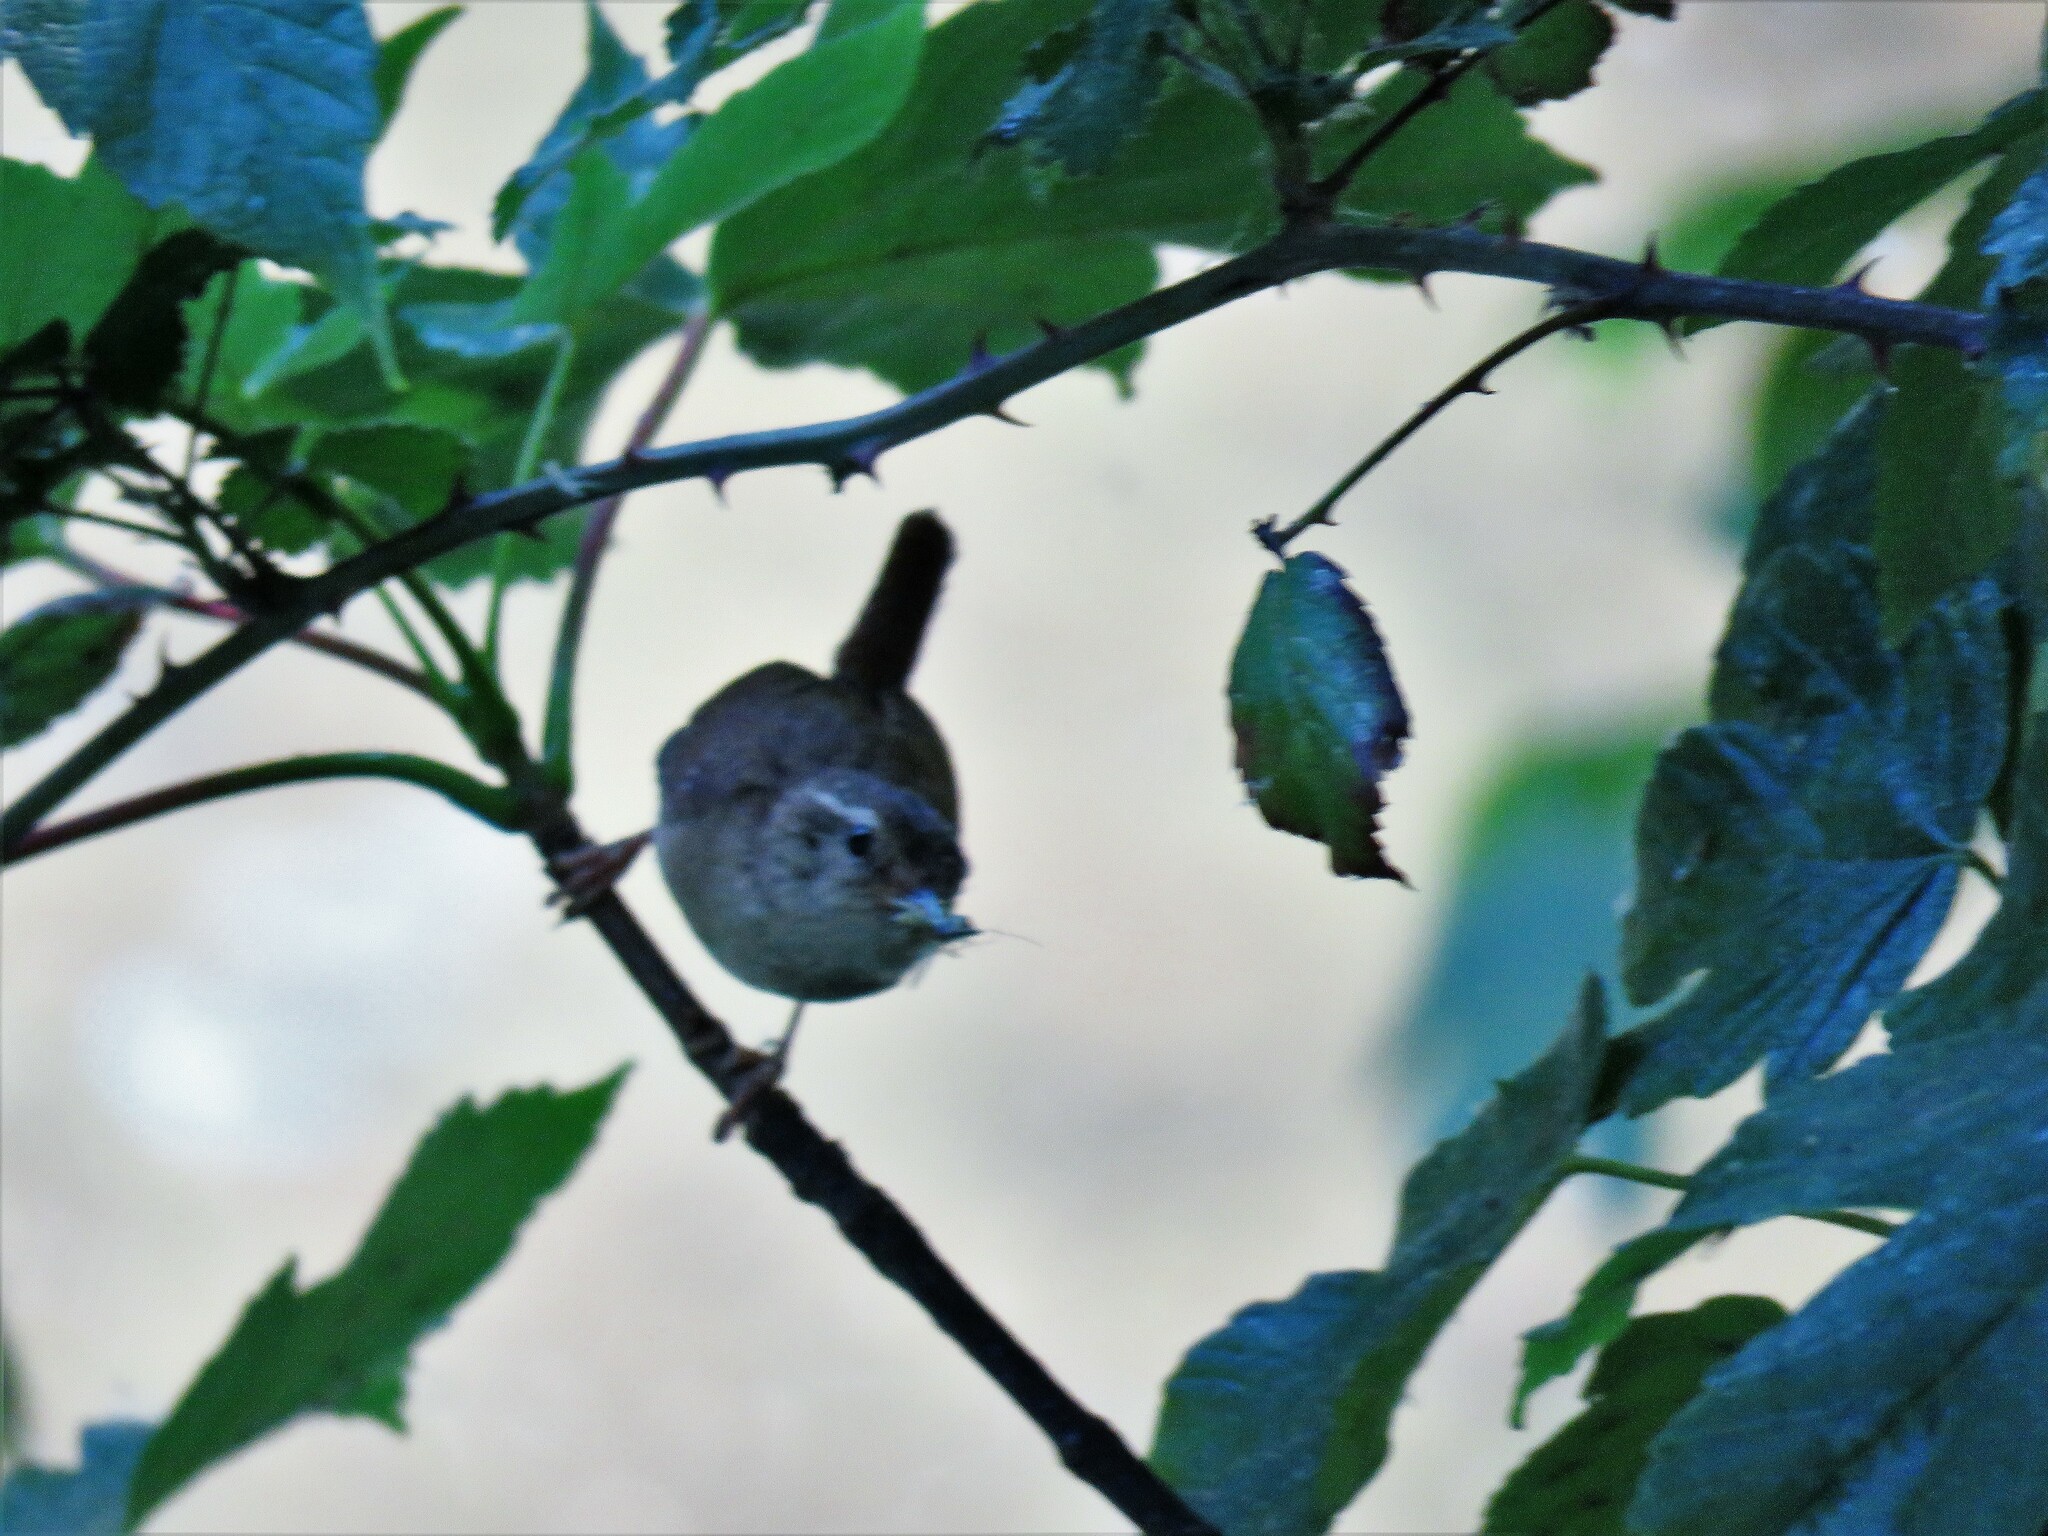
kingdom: Animalia
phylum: Chordata
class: Aves
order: Passeriformes
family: Troglodytidae
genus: Troglodytes
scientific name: Troglodytes troglodytes
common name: Eurasian wren
